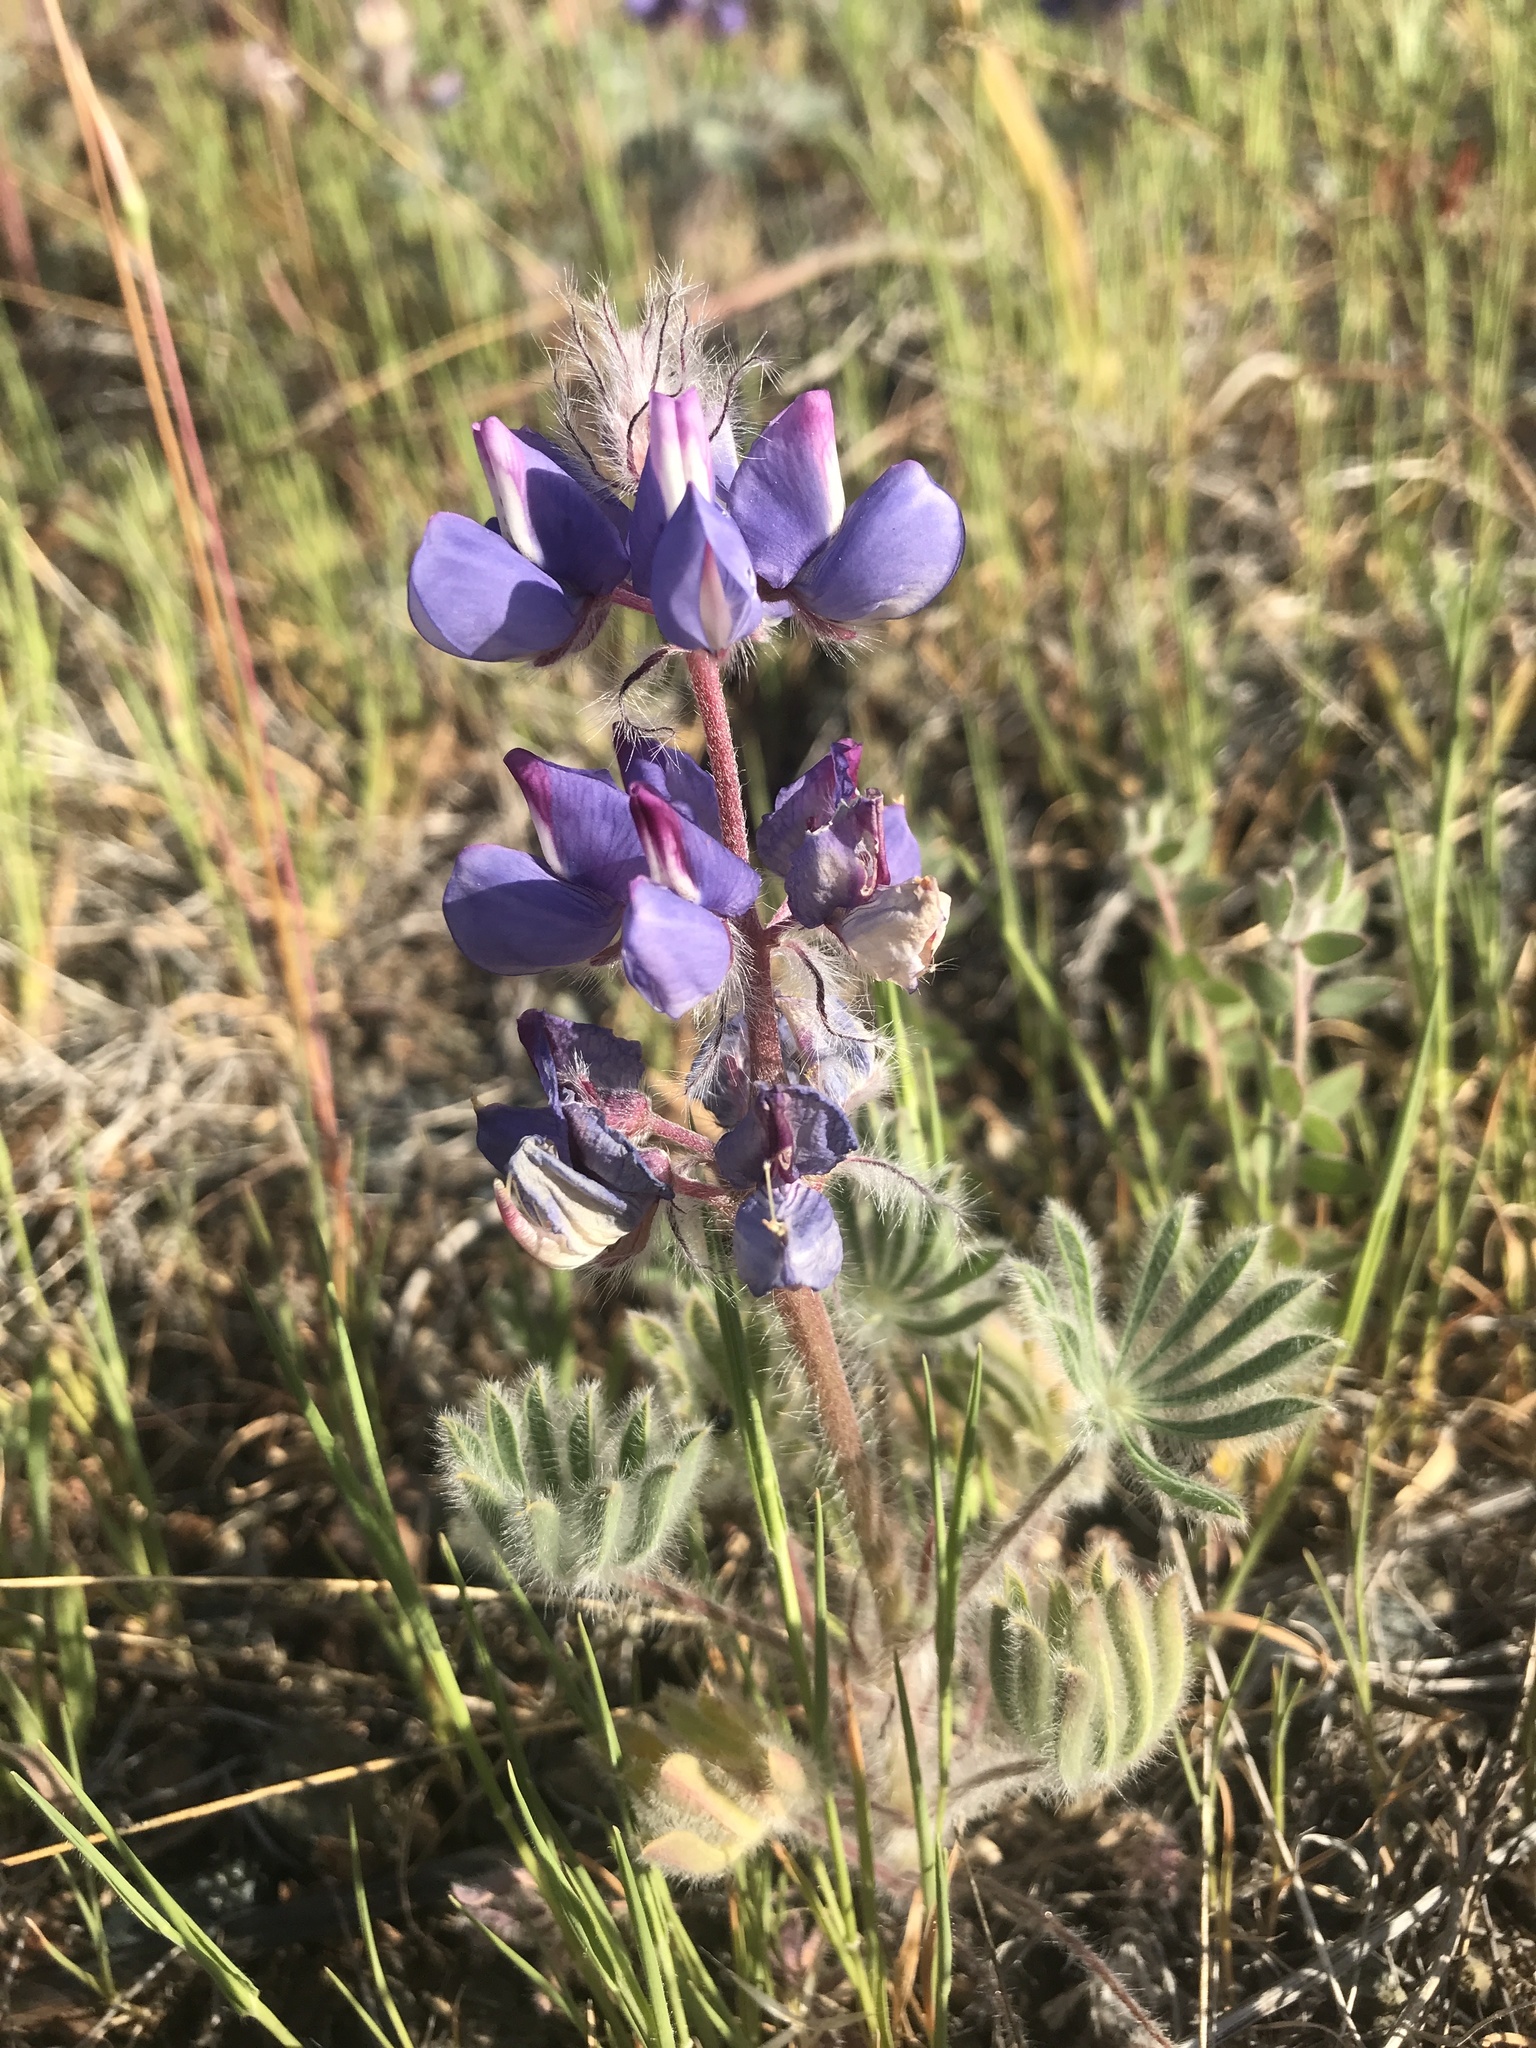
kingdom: Plantae
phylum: Tracheophyta
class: Magnoliopsida
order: Fabales
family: Fabaceae
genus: Lupinus
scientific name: Lupinus spectabilis
